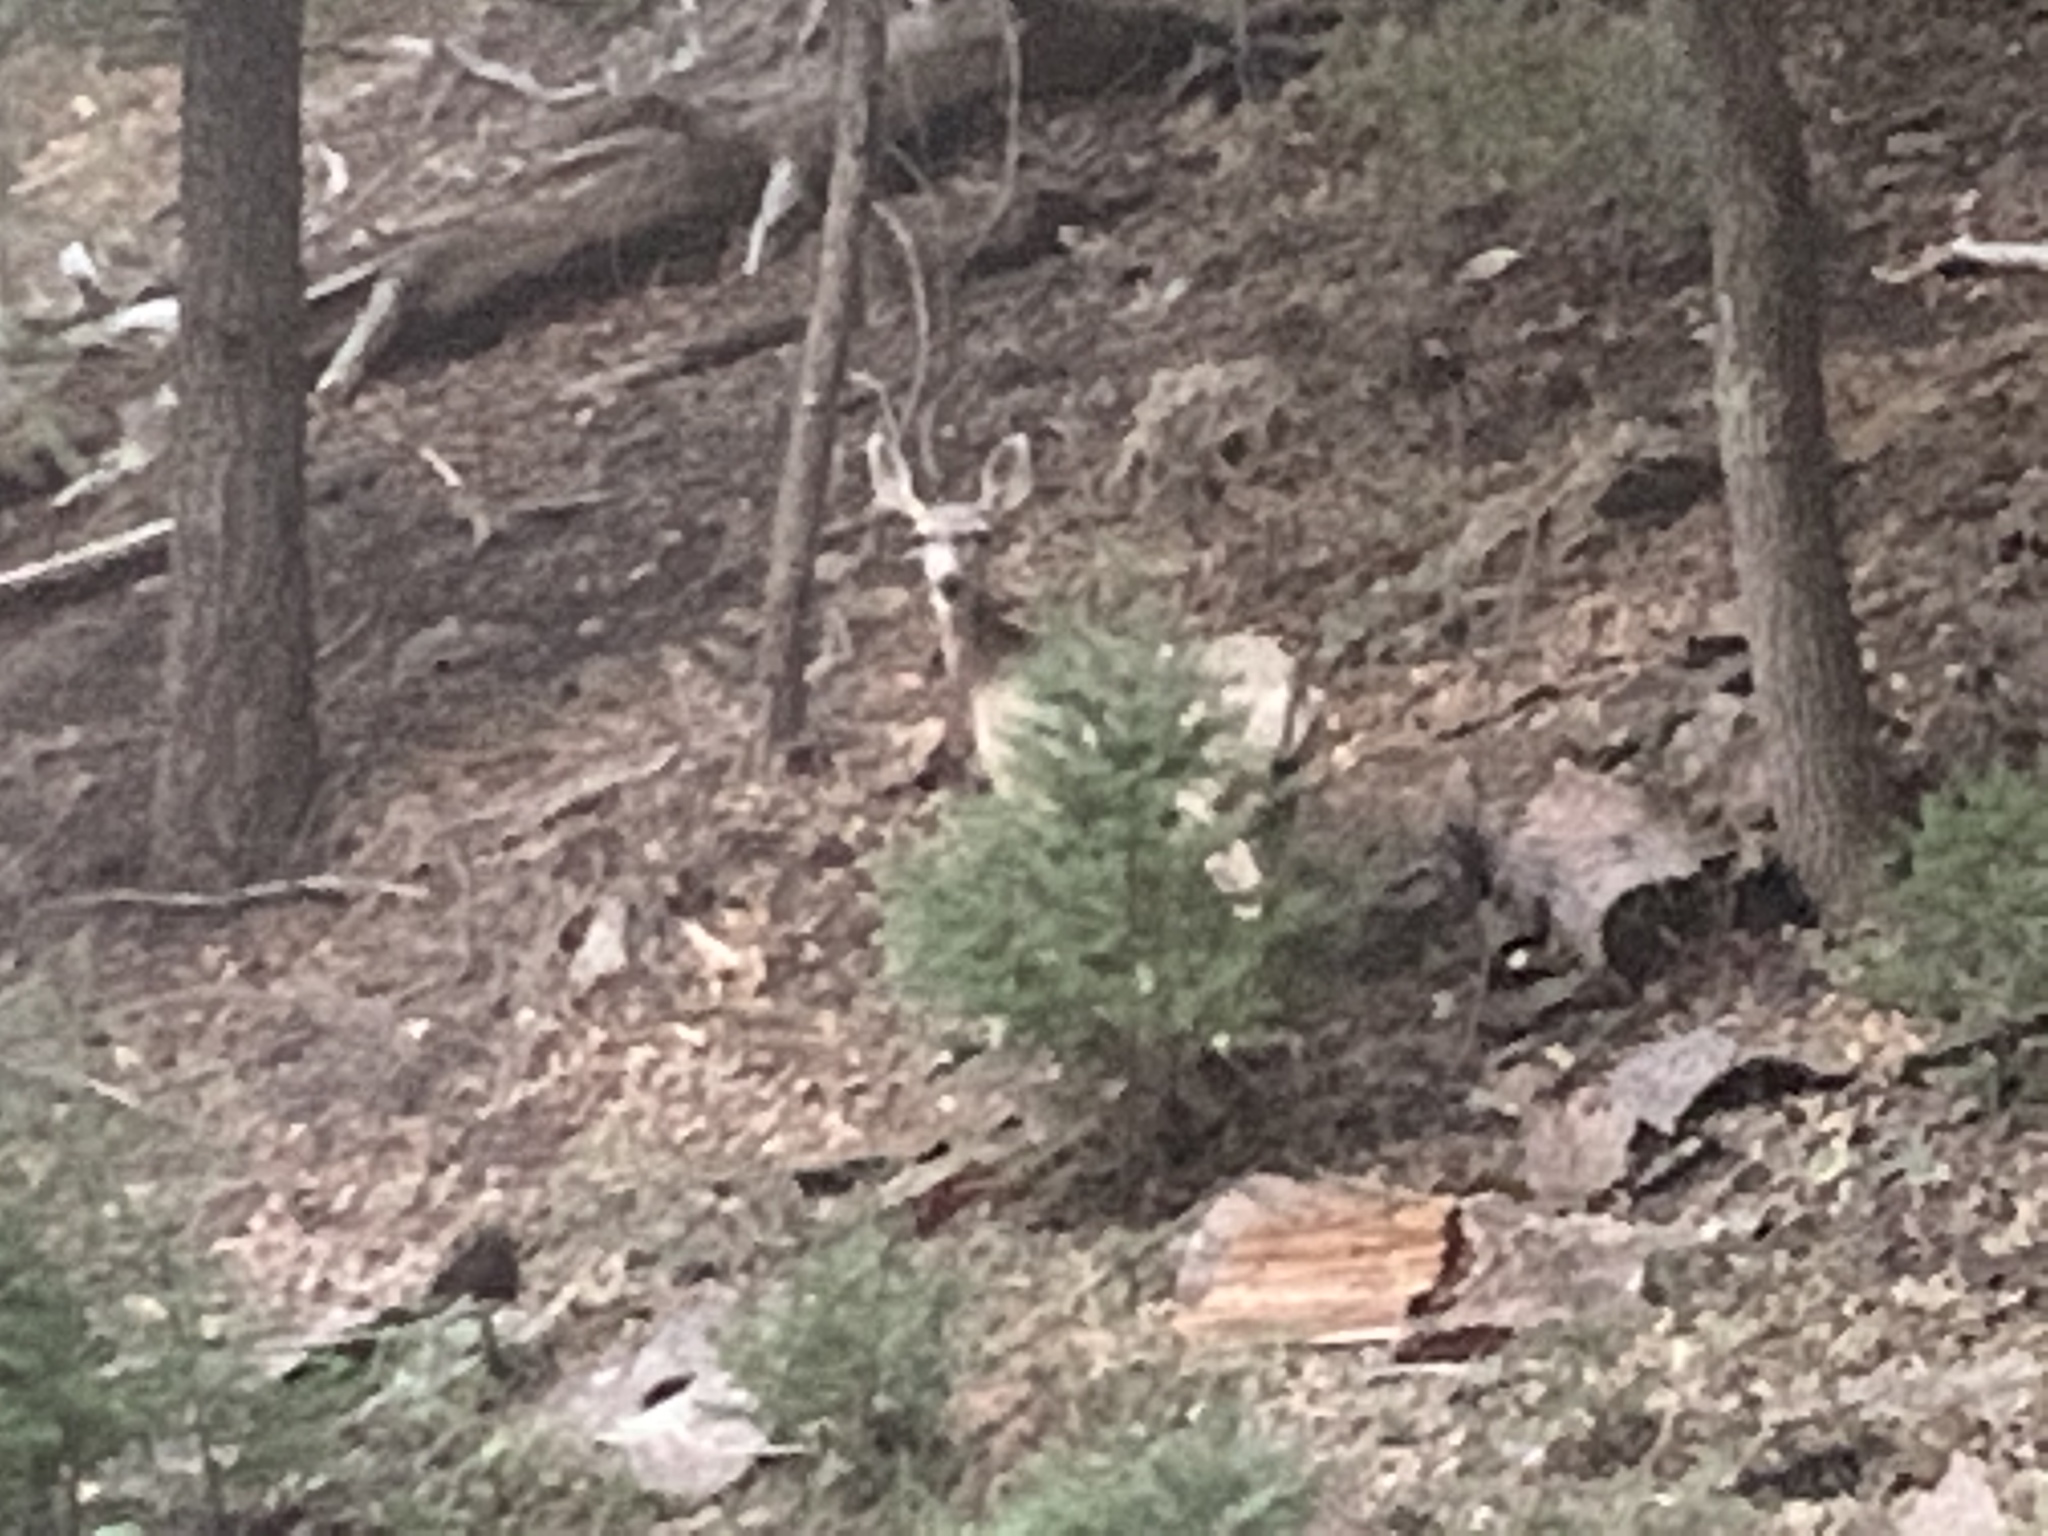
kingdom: Animalia
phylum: Chordata
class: Mammalia
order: Artiodactyla
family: Cervidae
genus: Odocoileus
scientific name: Odocoileus hemionus
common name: Mule deer
